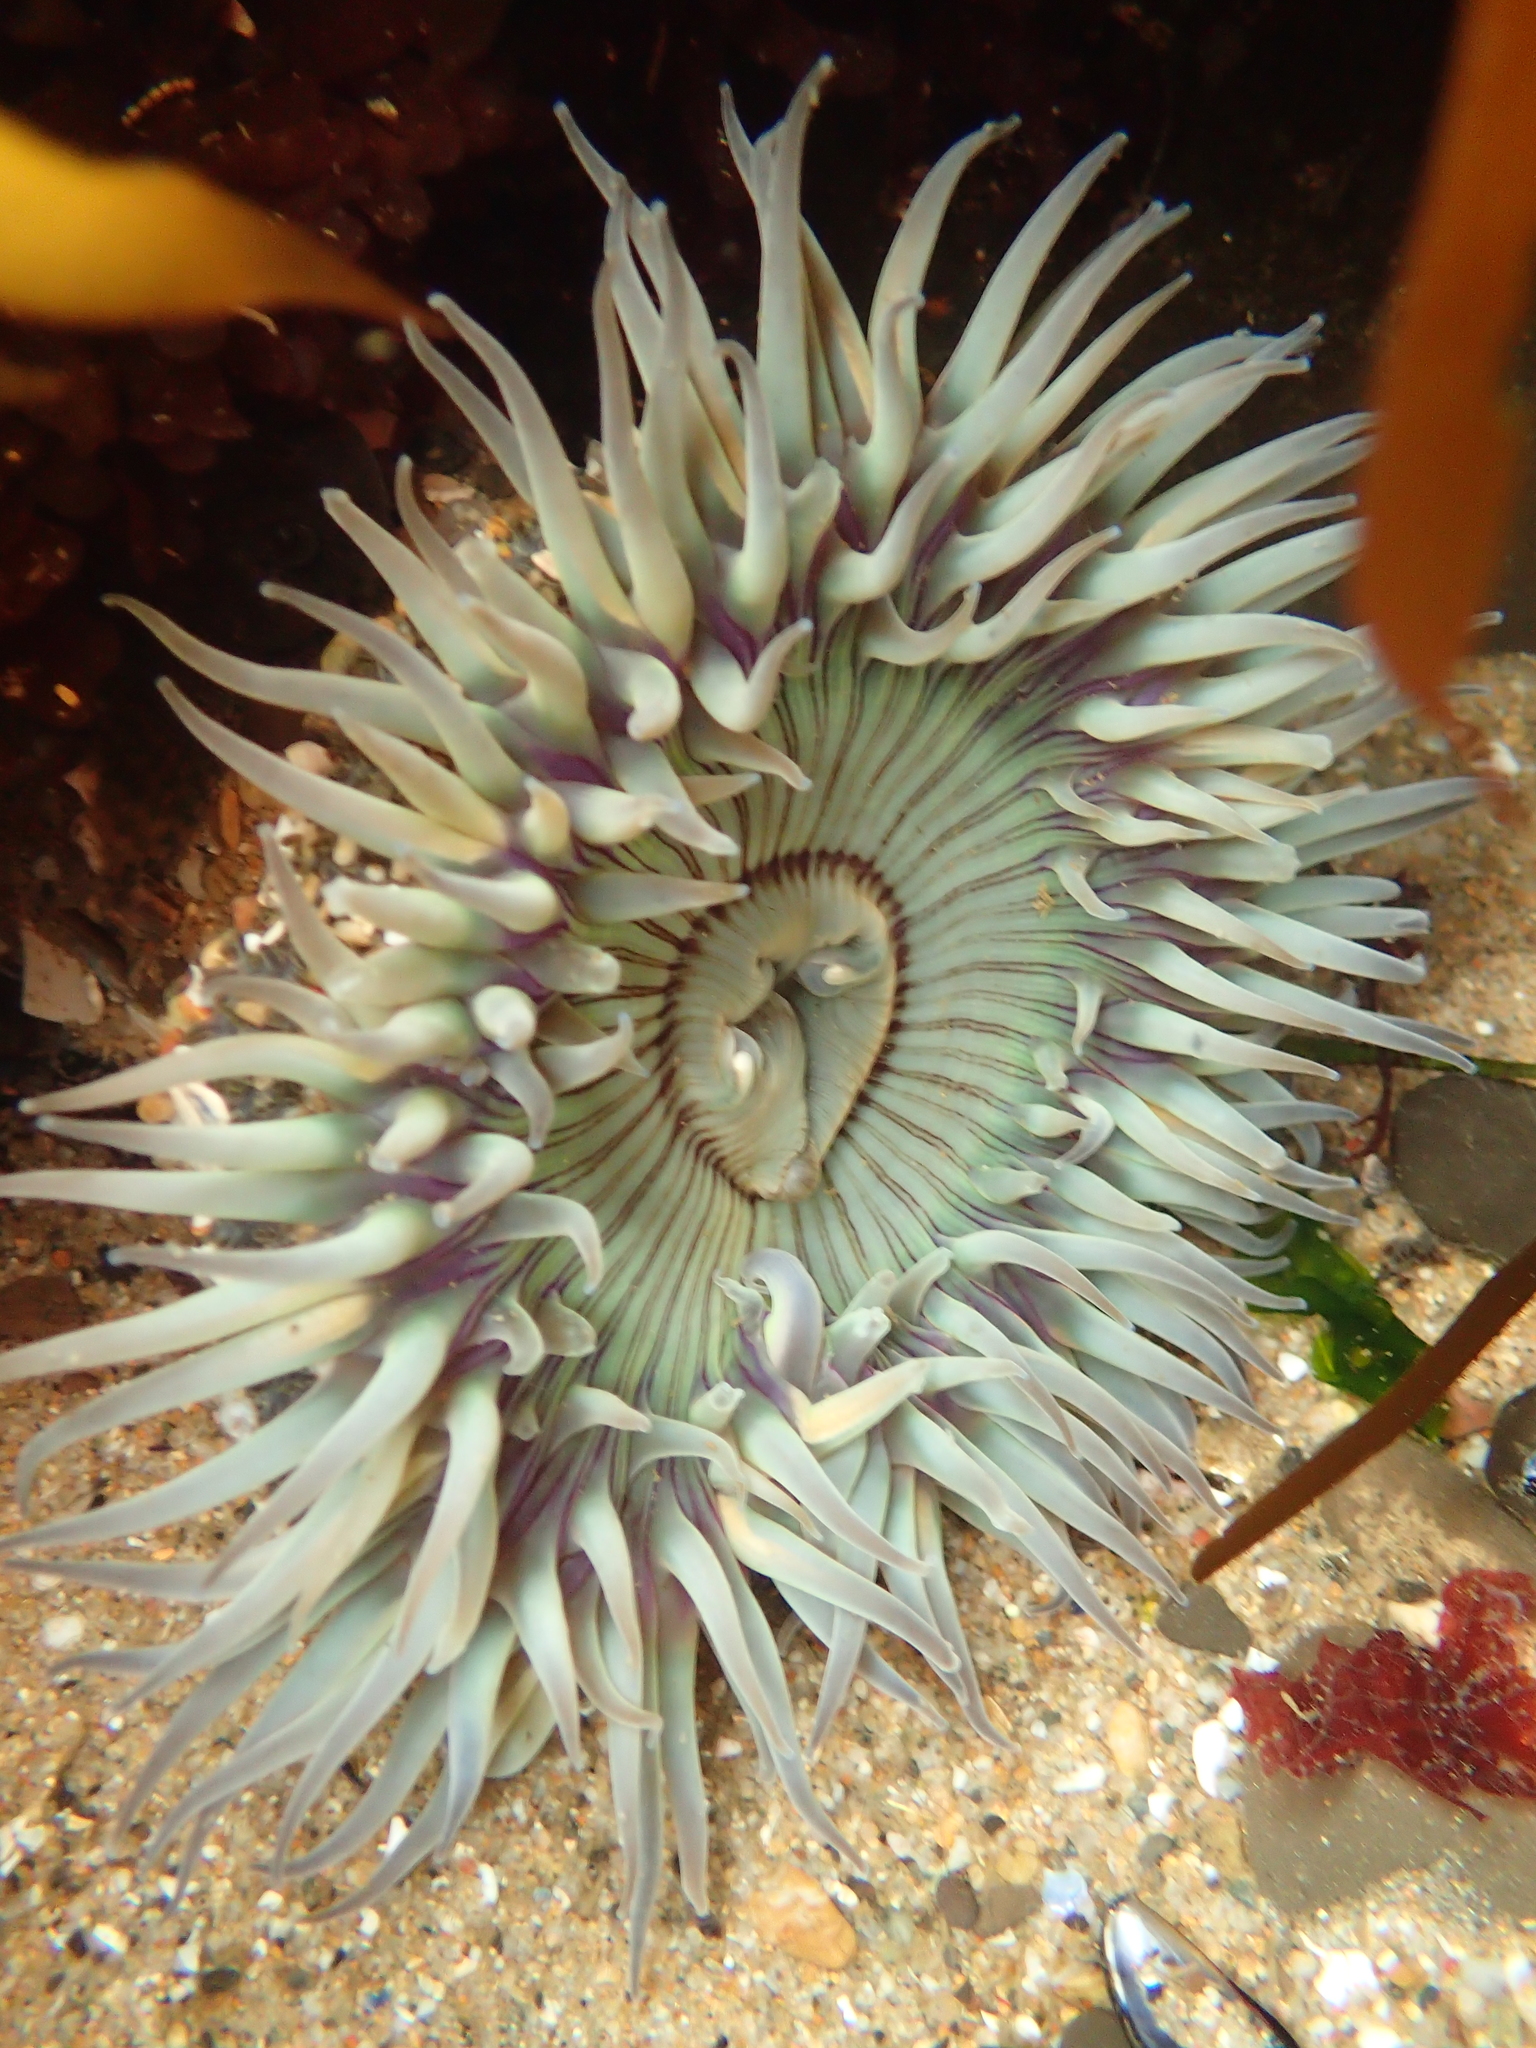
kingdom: Animalia
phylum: Cnidaria
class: Anthozoa
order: Actiniaria
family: Actiniidae
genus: Anthopleura
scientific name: Anthopleura sola
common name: Sun anemone
